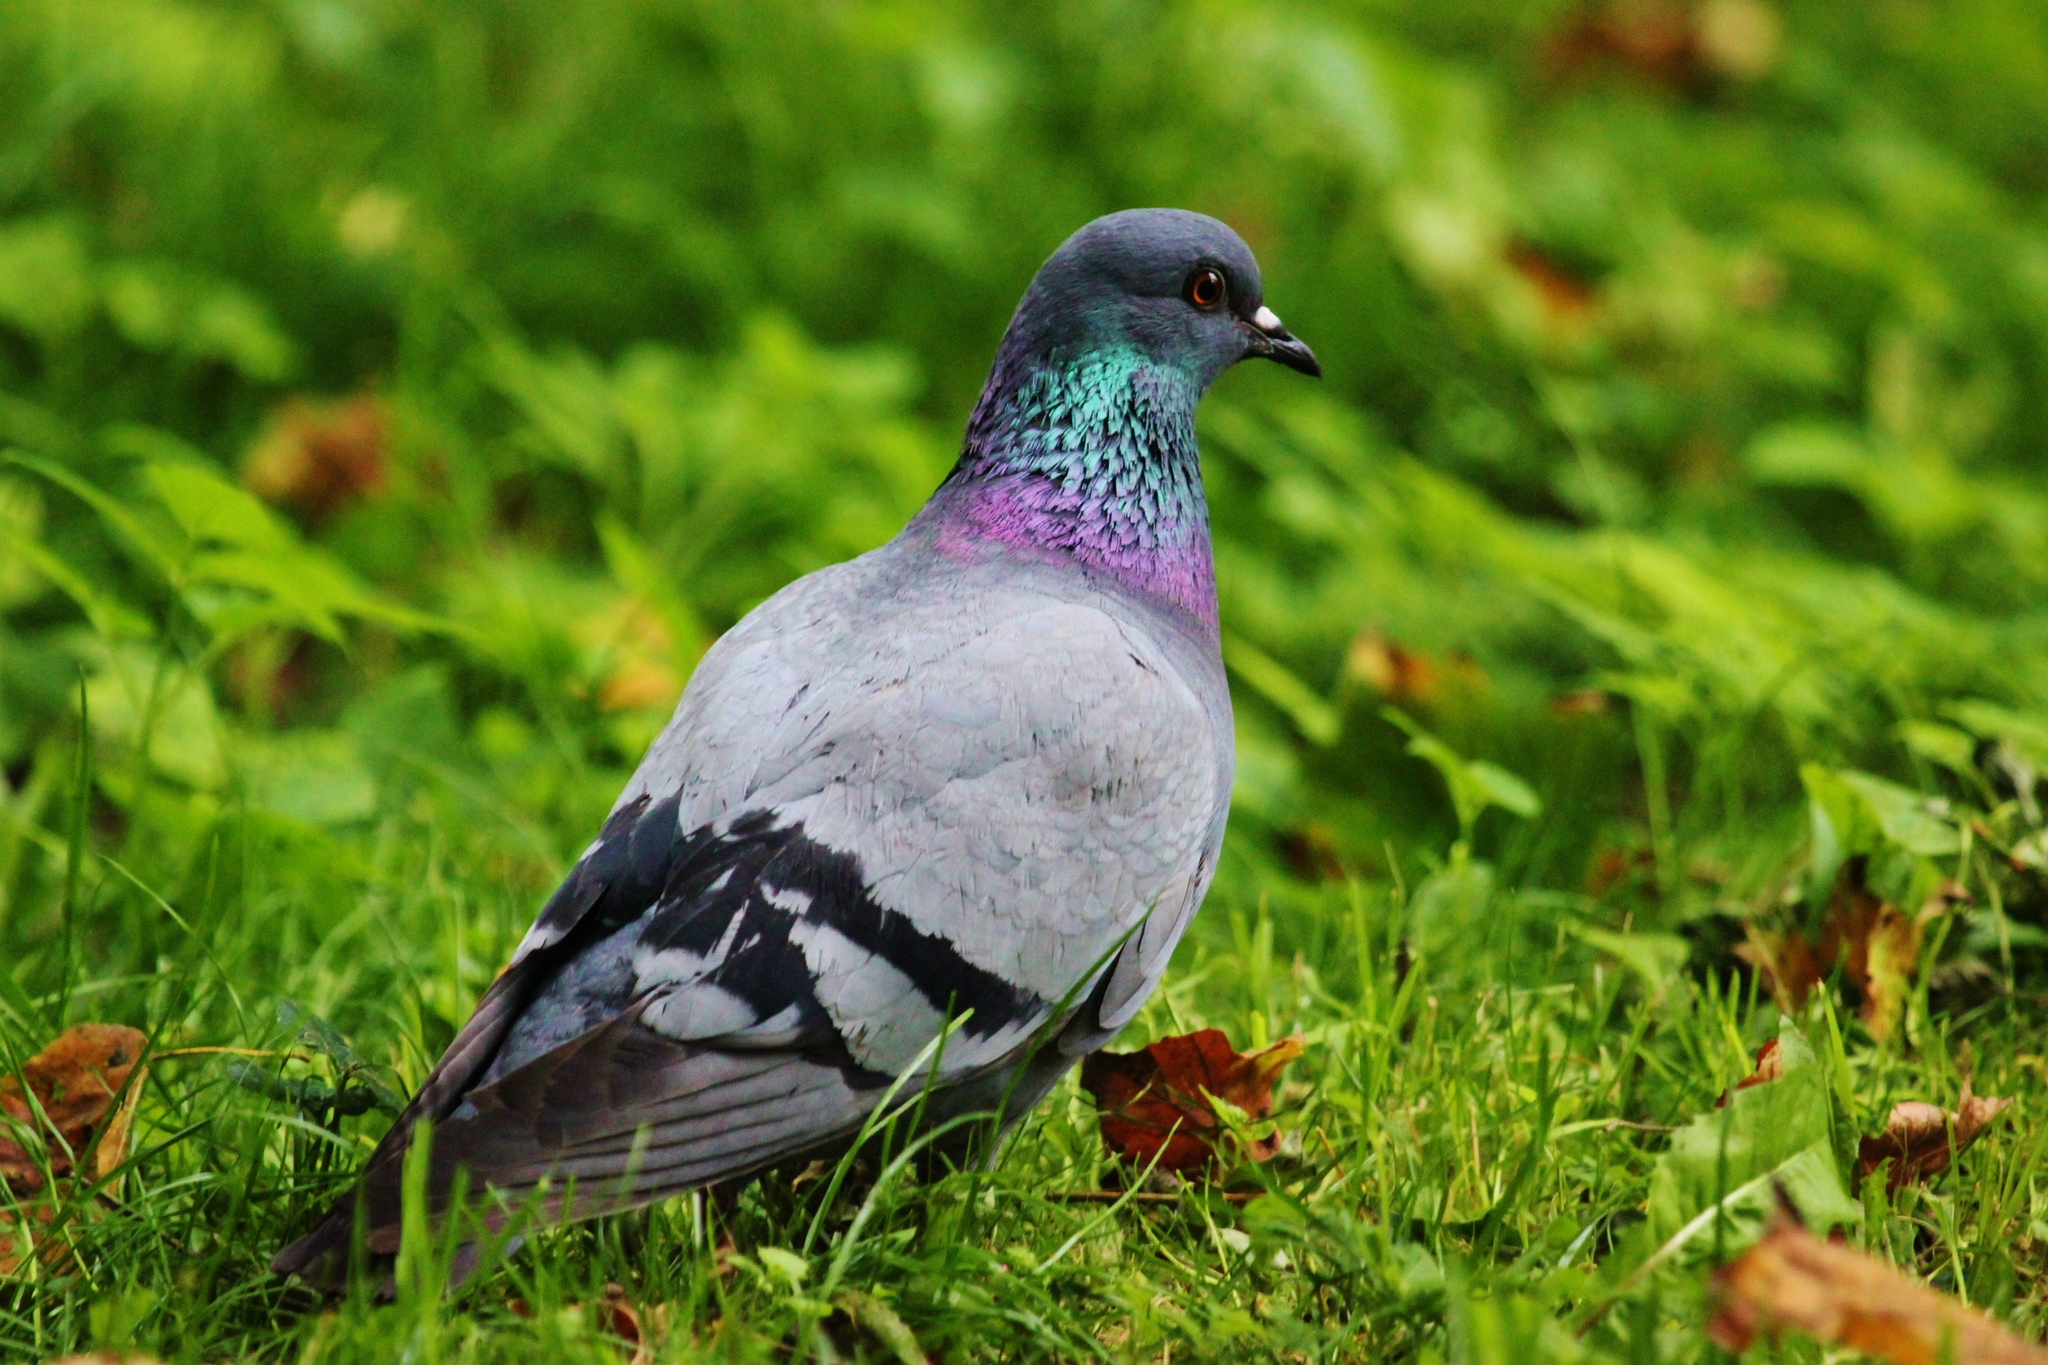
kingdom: Animalia
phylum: Chordata
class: Aves
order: Columbiformes
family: Columbidae
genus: Columba
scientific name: Columba livia
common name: Rock pigeon
